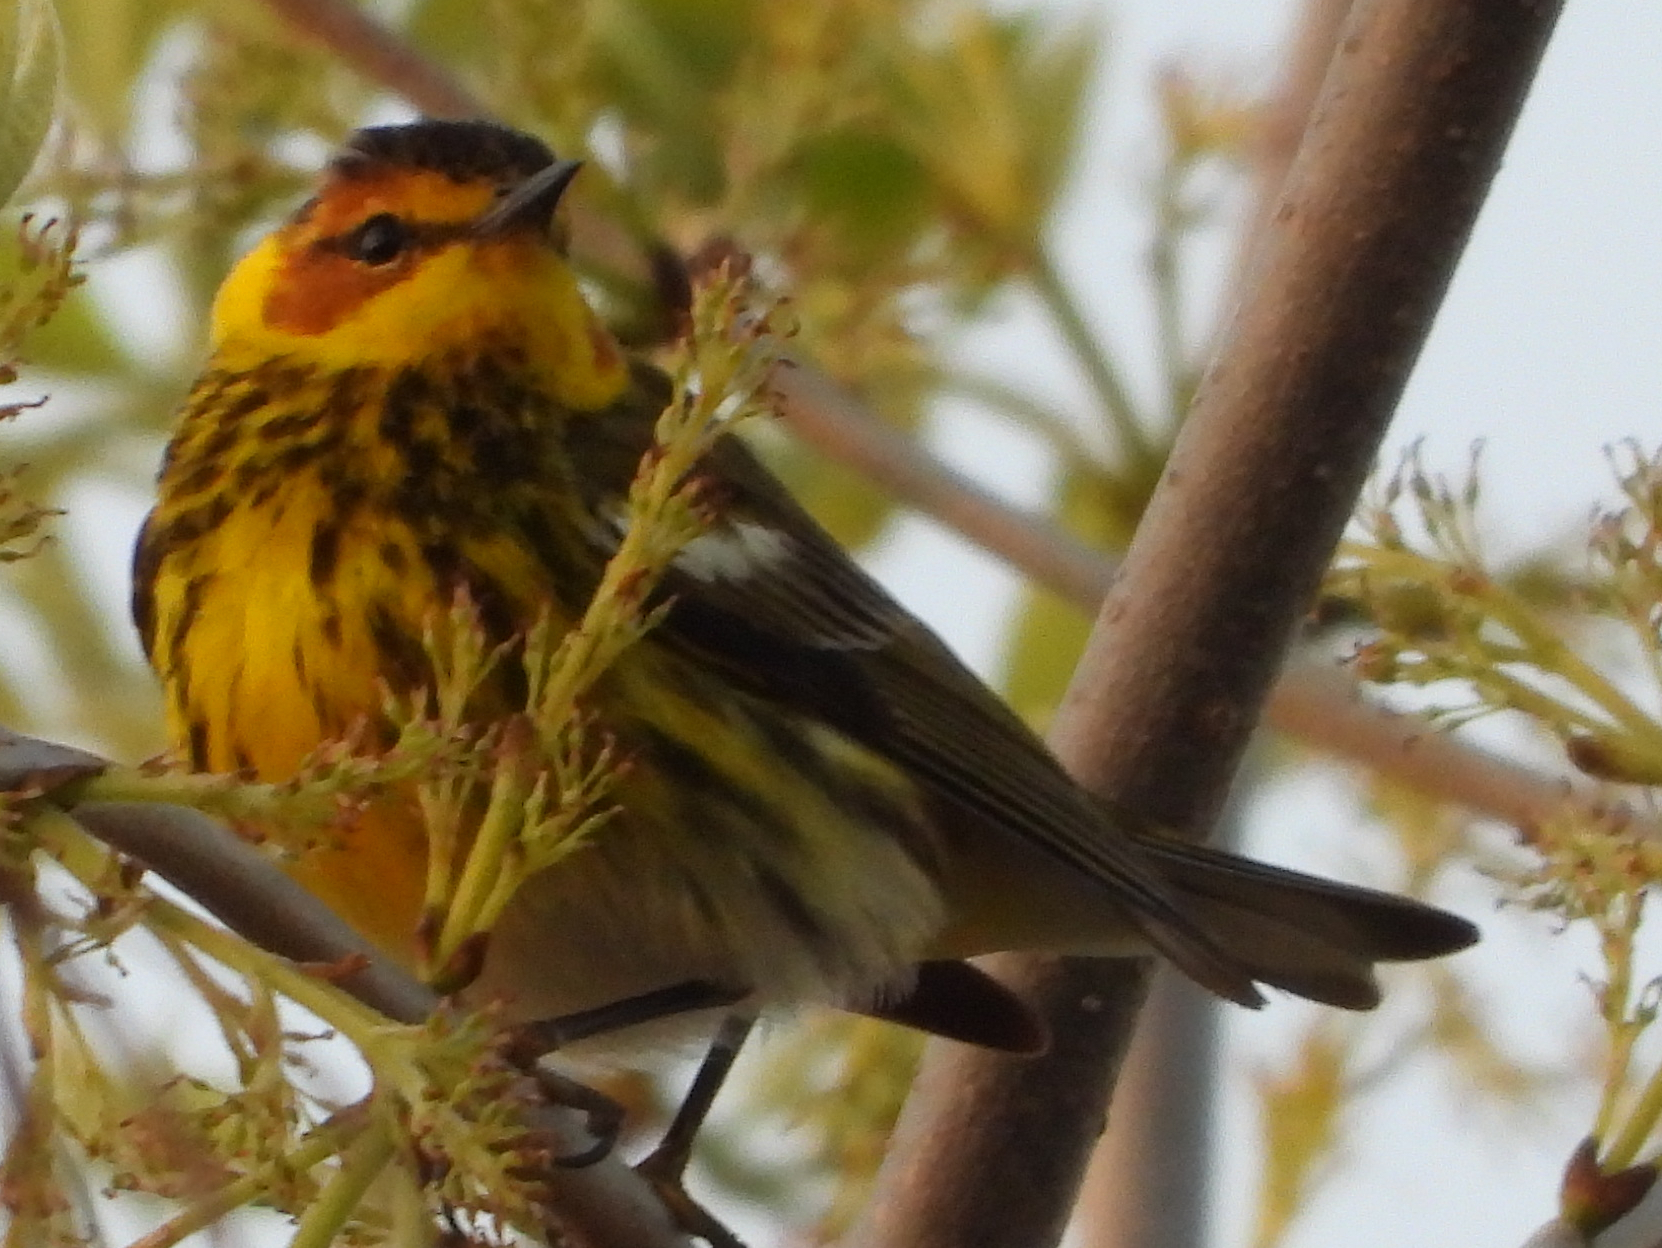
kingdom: Animalia
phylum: Chordata
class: Aves
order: Passeriformes
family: Parulidae
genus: Setophaga
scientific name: Setophaga tigrina
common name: Cape may warbler
